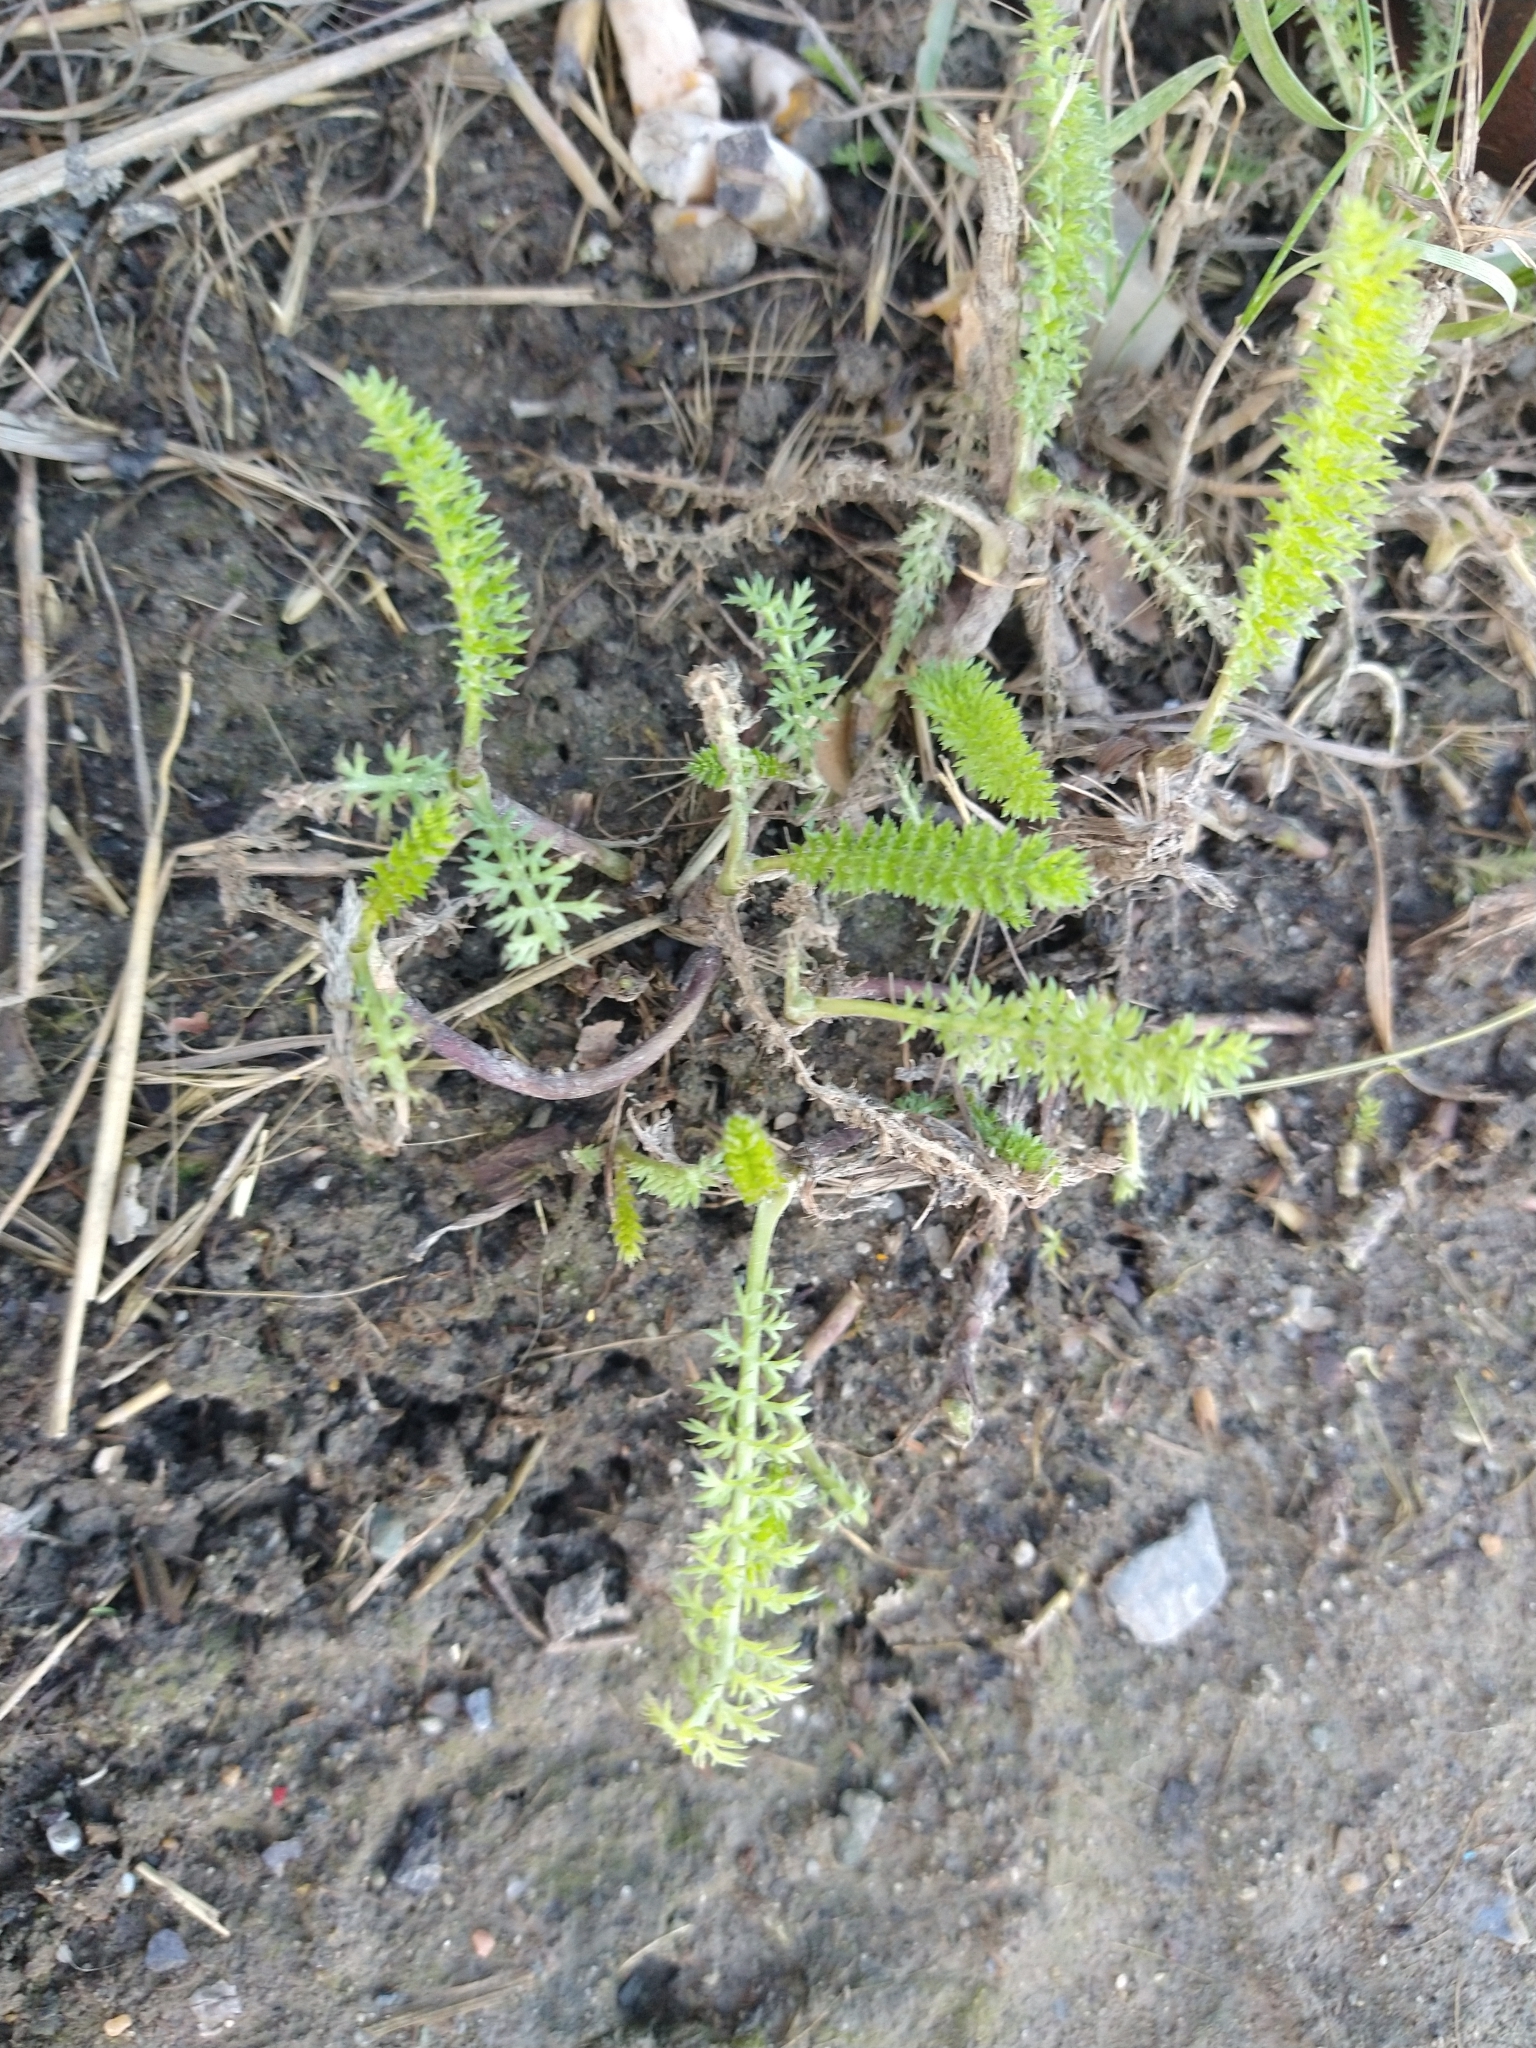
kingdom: Plantae
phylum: Tracheophyta
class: Magnoliopsida
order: Asterales
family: Asteraceae
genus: Achillea
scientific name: Achillea millefolium
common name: Yarrow
